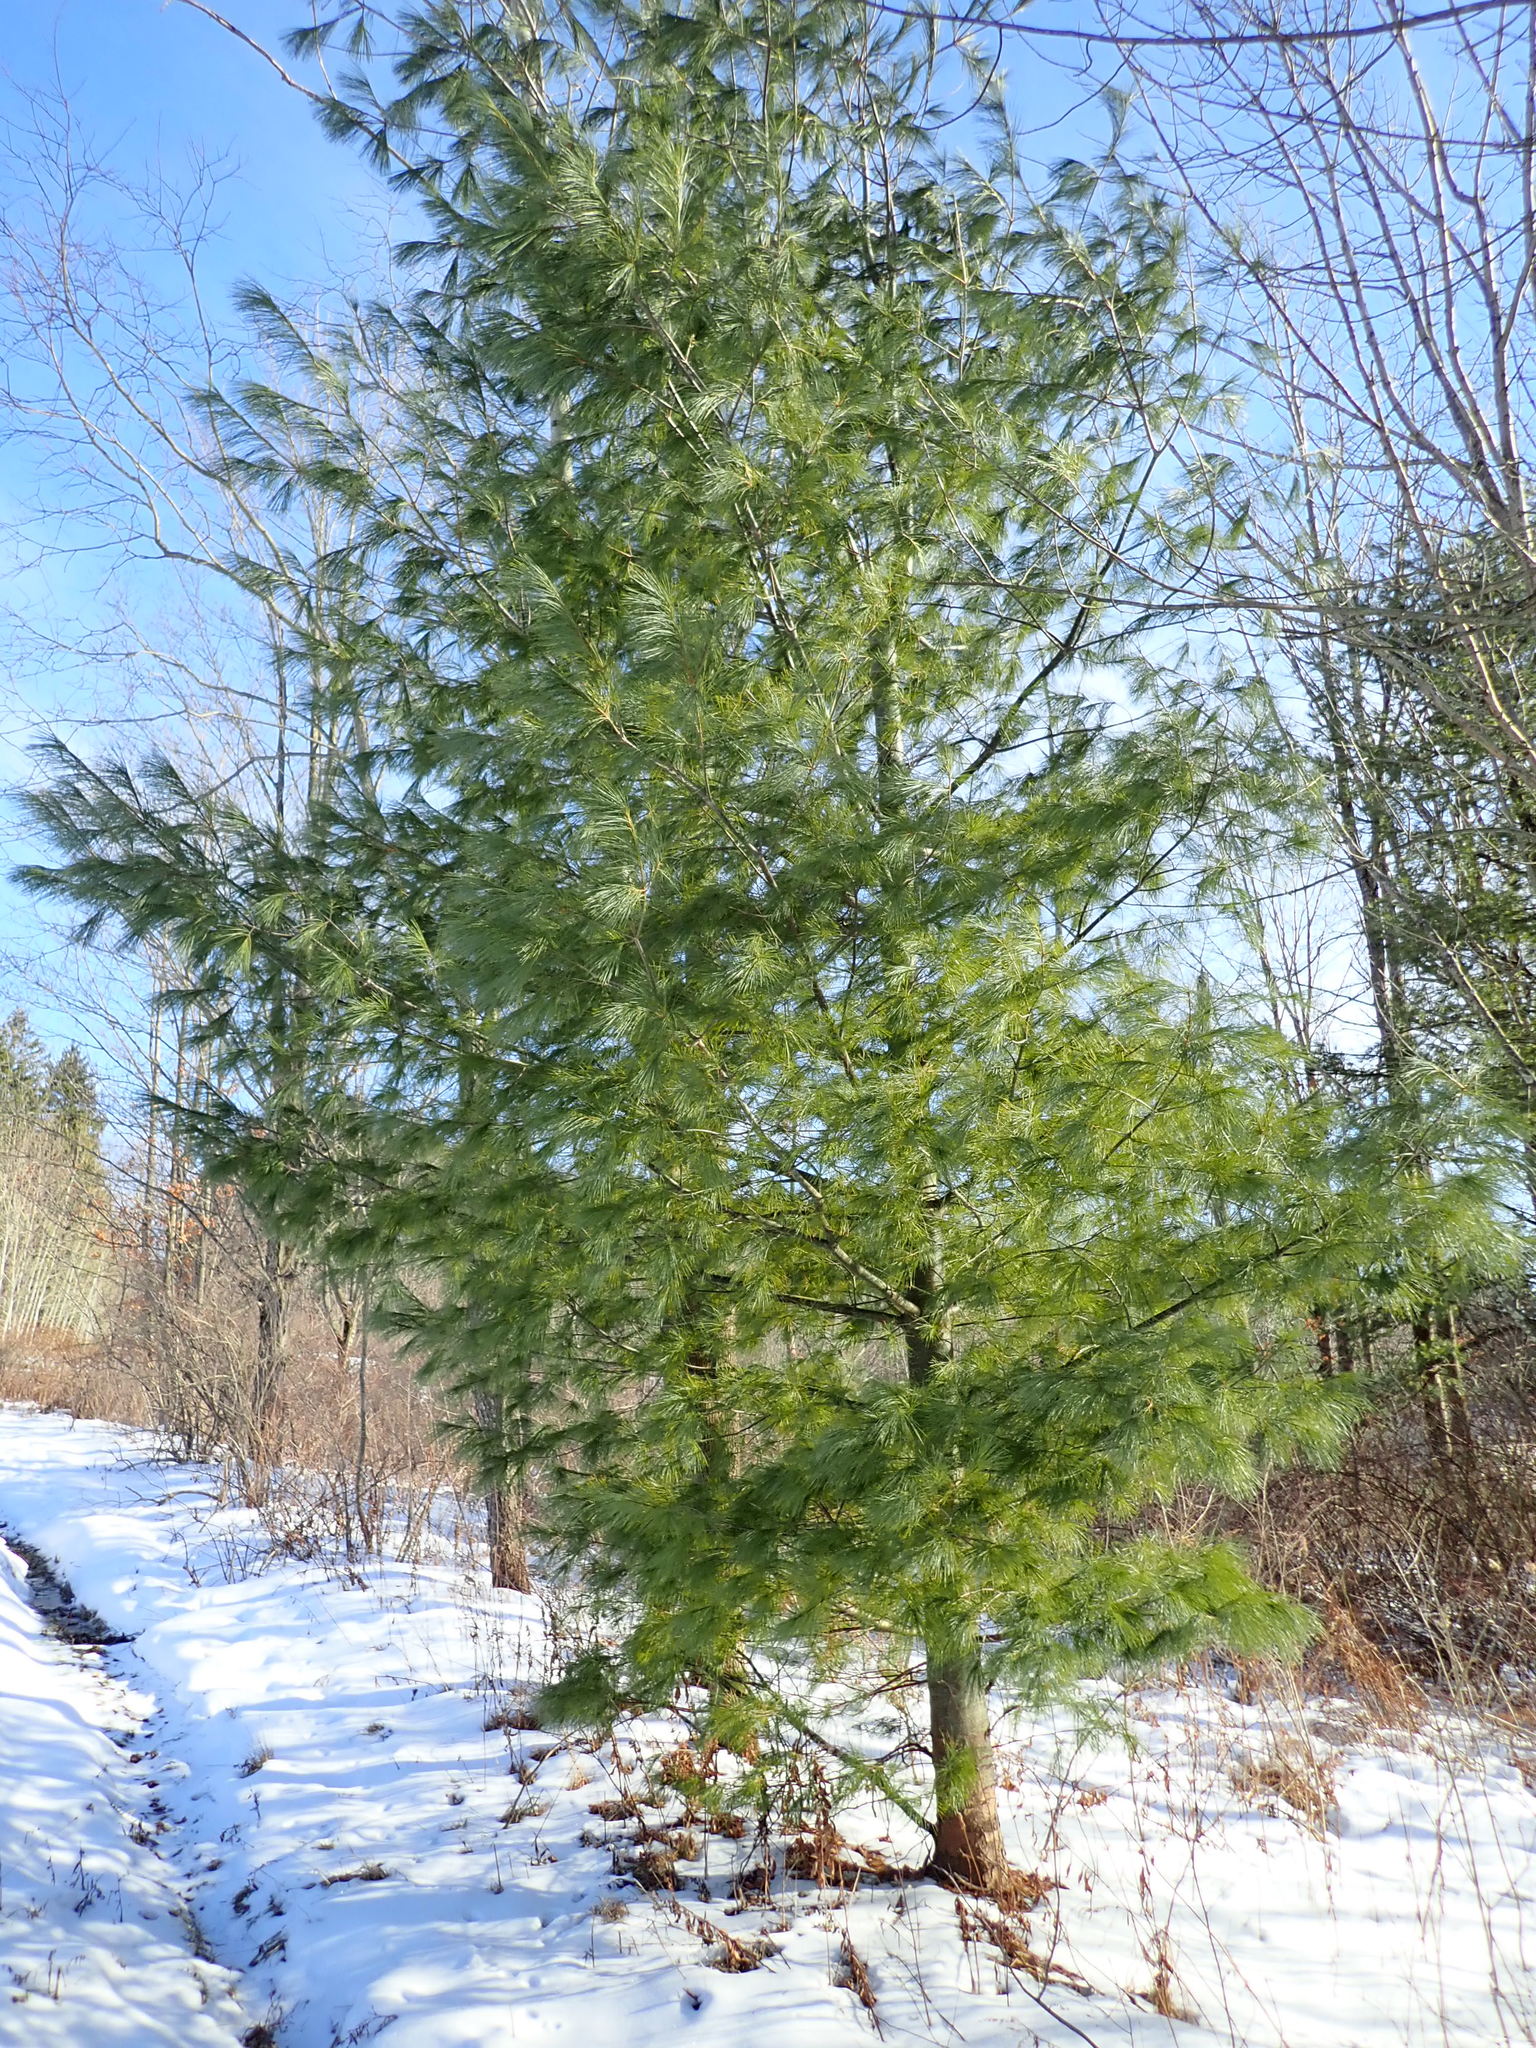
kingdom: Plantae
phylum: Tracheophyta
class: Pinopsida
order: Pinales
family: Pinaceae
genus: Pinus
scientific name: Pinus strobus
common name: Weymouth pine
